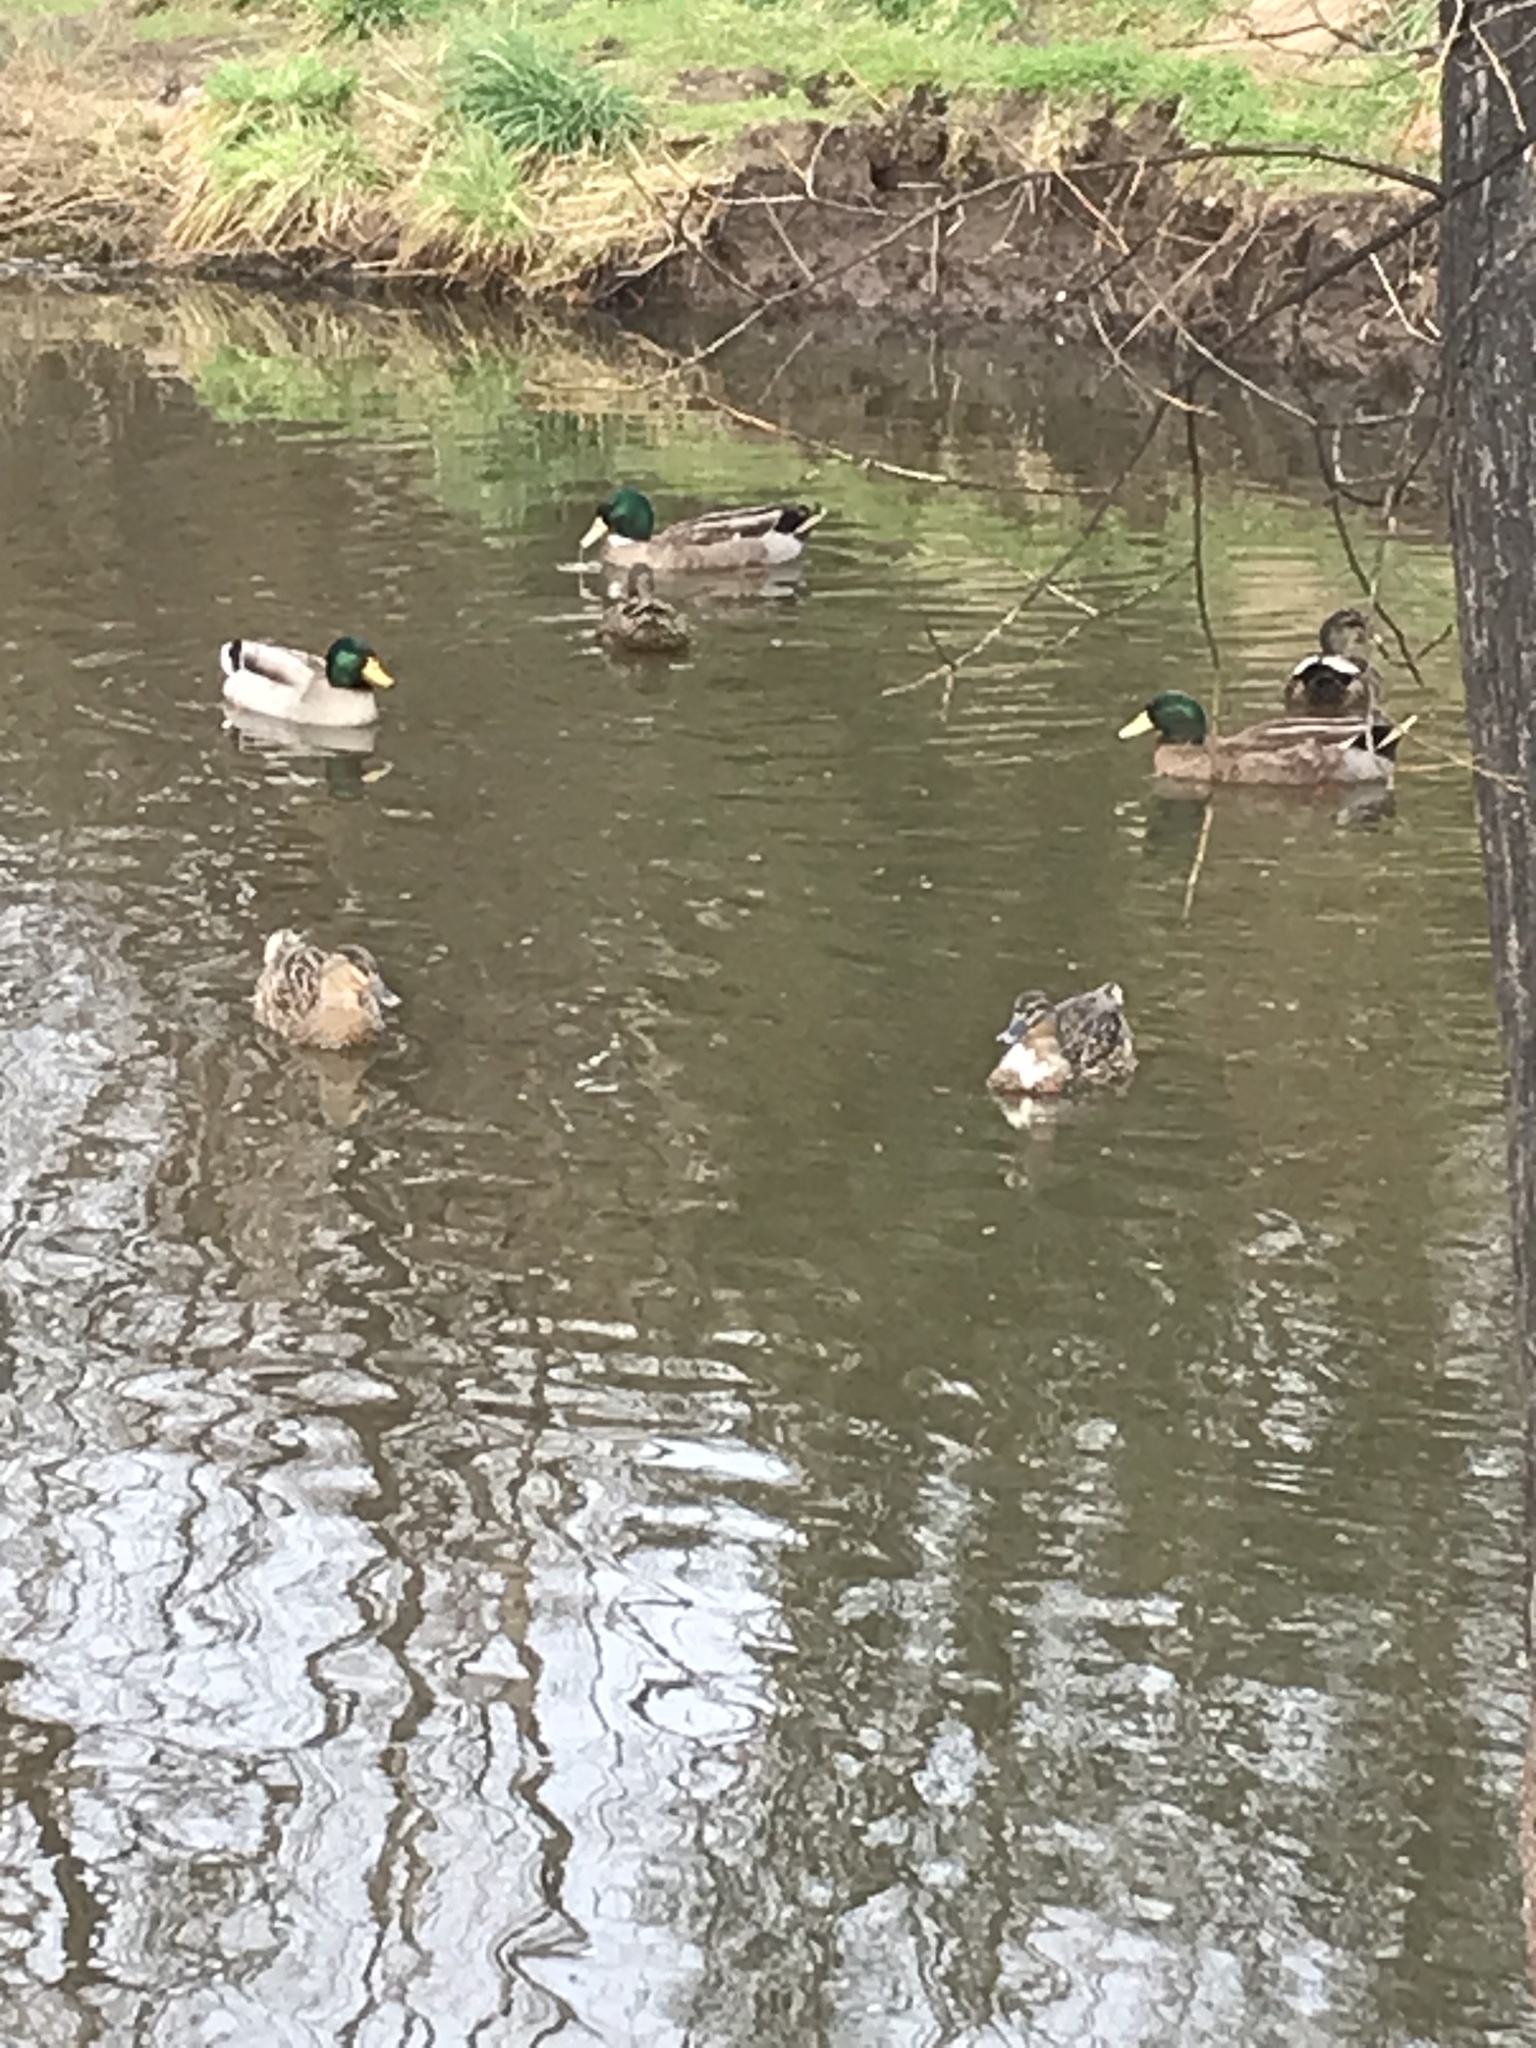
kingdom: Animalia
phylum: Chordata
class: Aves
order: Anseriformes
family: Anatidae
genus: Anas
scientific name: Anas
